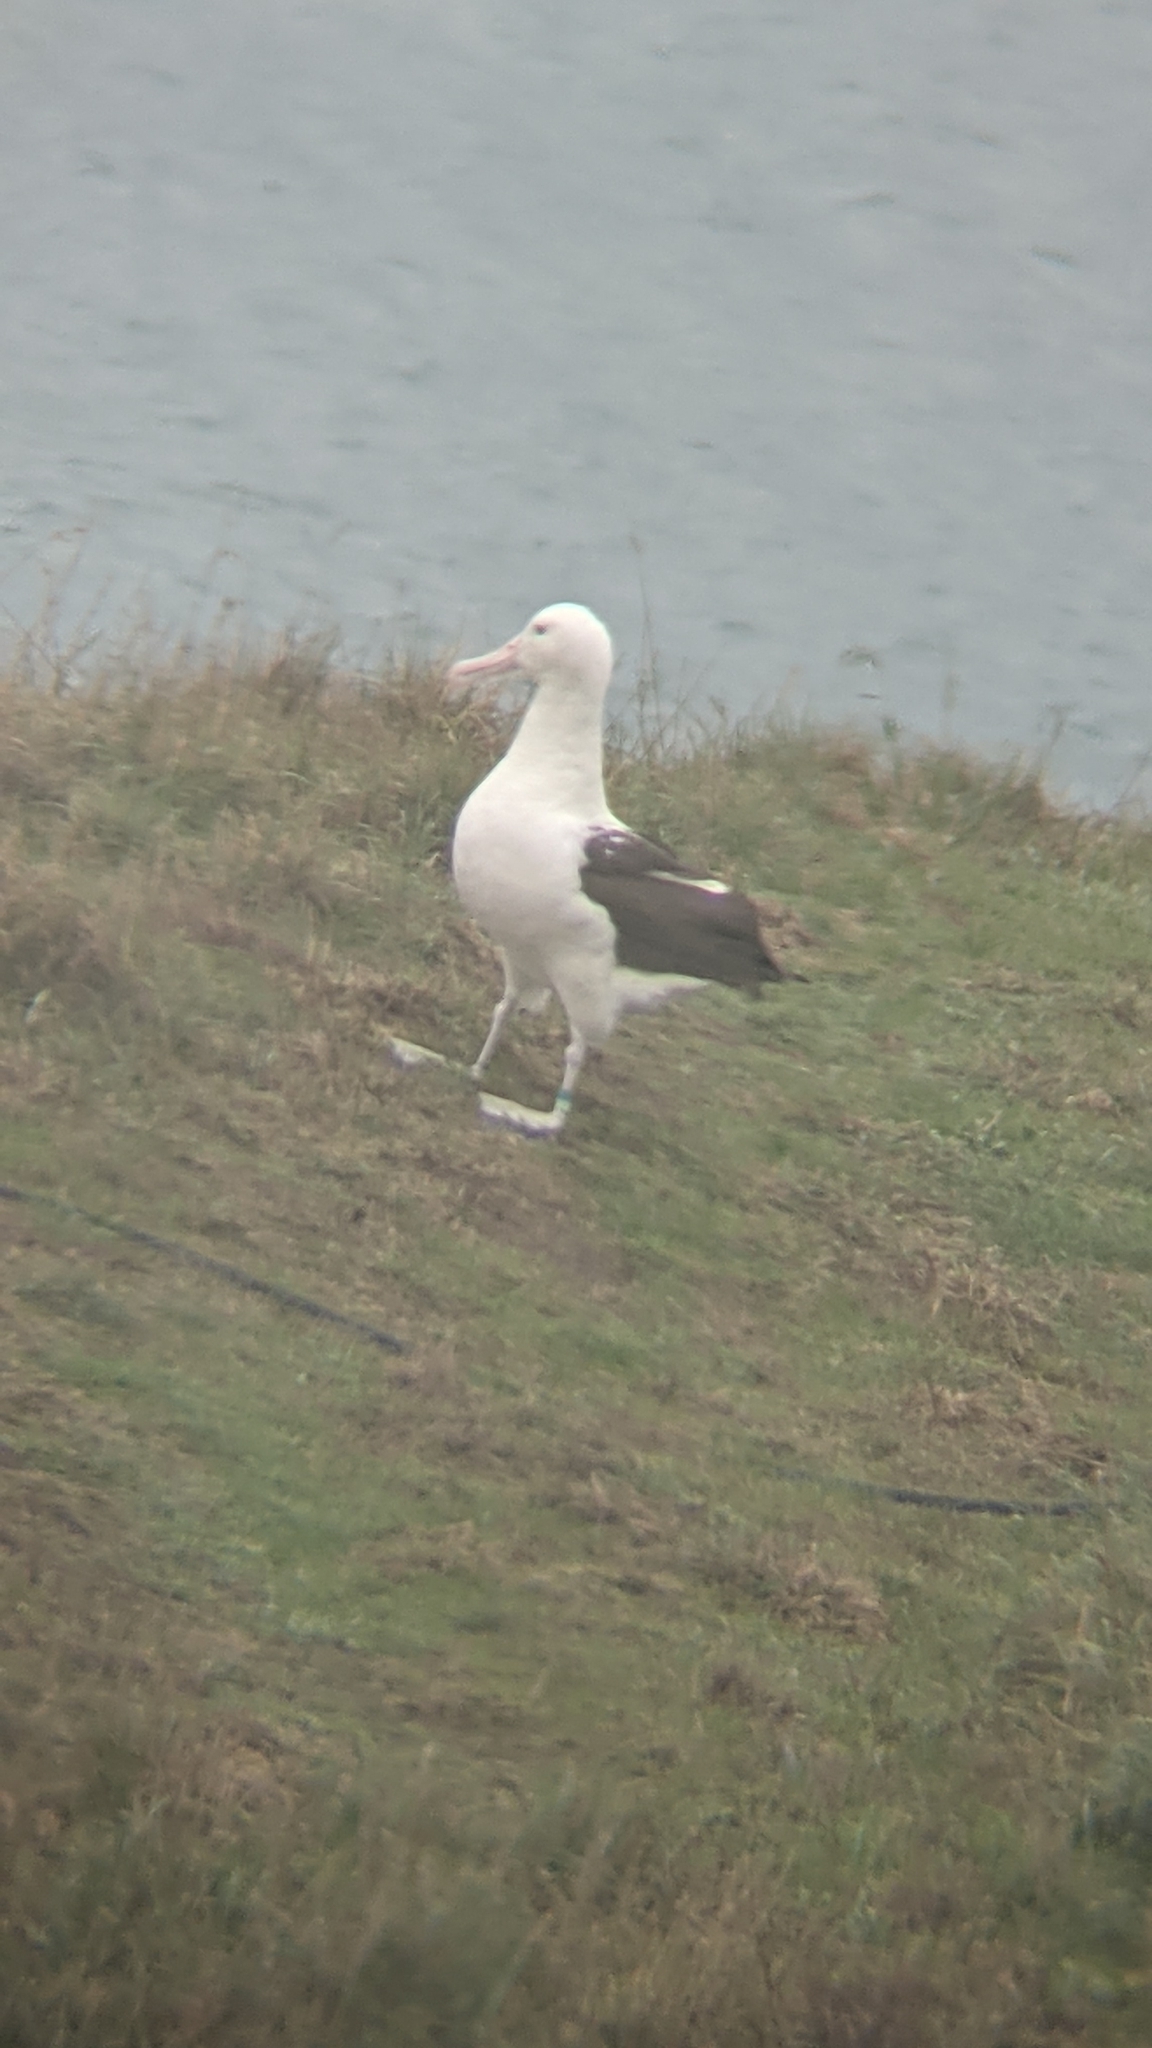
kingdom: Animalia
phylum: Chordata
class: Aves
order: Procellariiformes
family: Diomedeidae
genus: Diomedea
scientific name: Diomedea sanfordi
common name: Northern royal albatross
